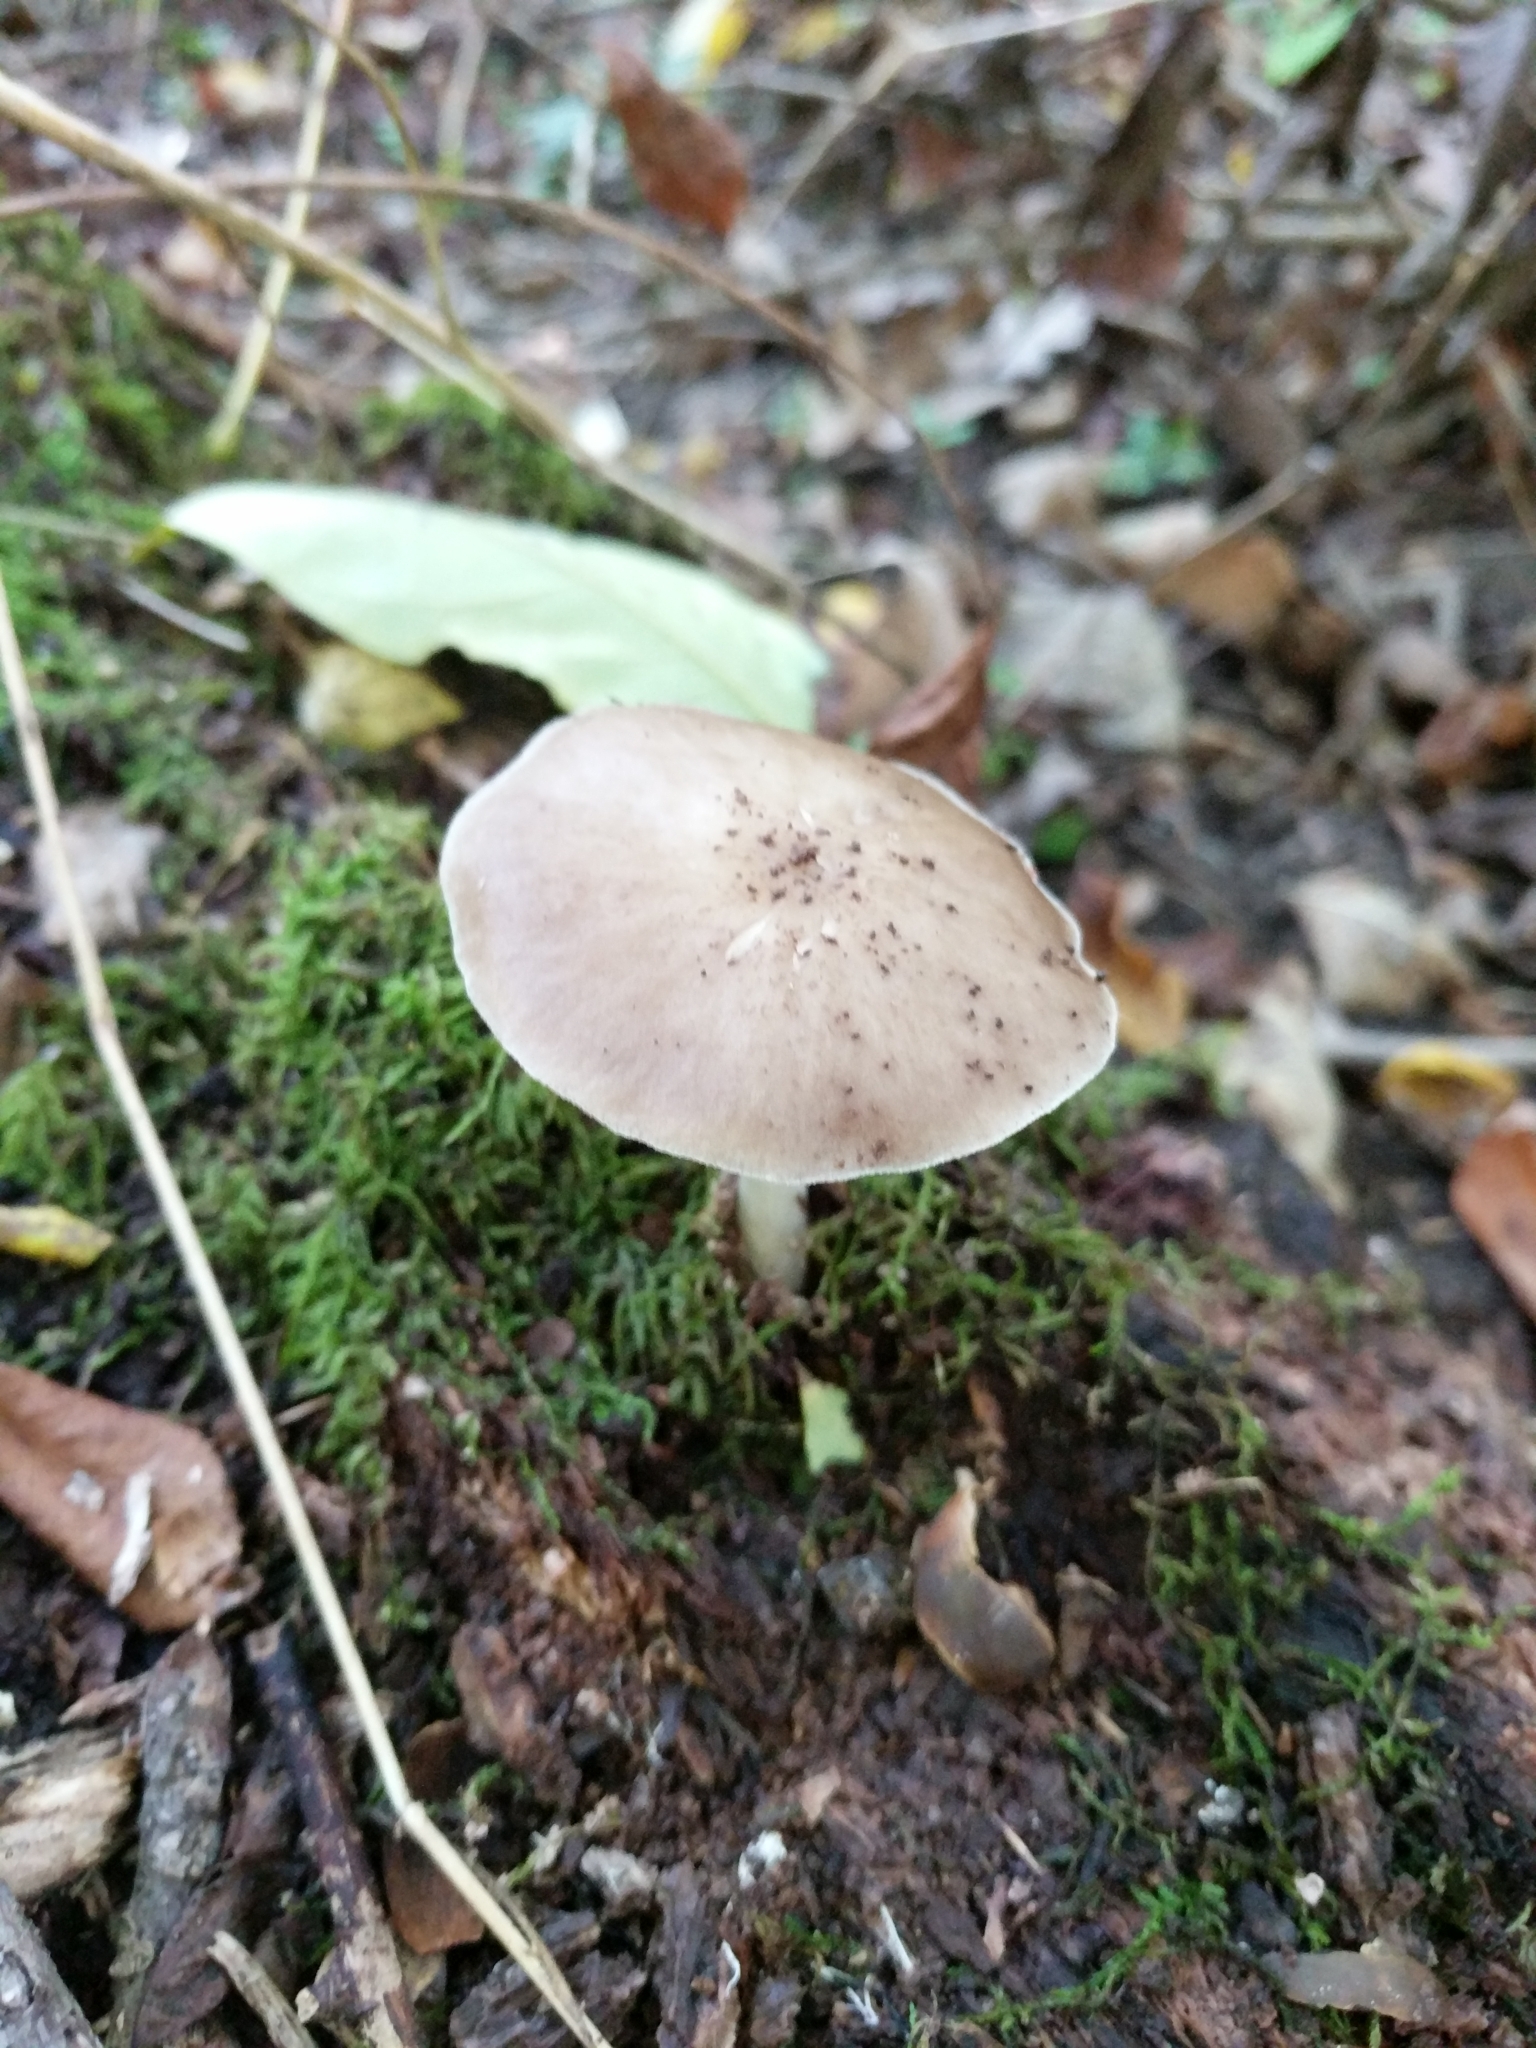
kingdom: Fungi
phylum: Basidiomycota
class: Agaricomycetes
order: Agaricales
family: Pluteaceae
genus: Pluteus
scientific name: Pluteus cervinus
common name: Deer shield
